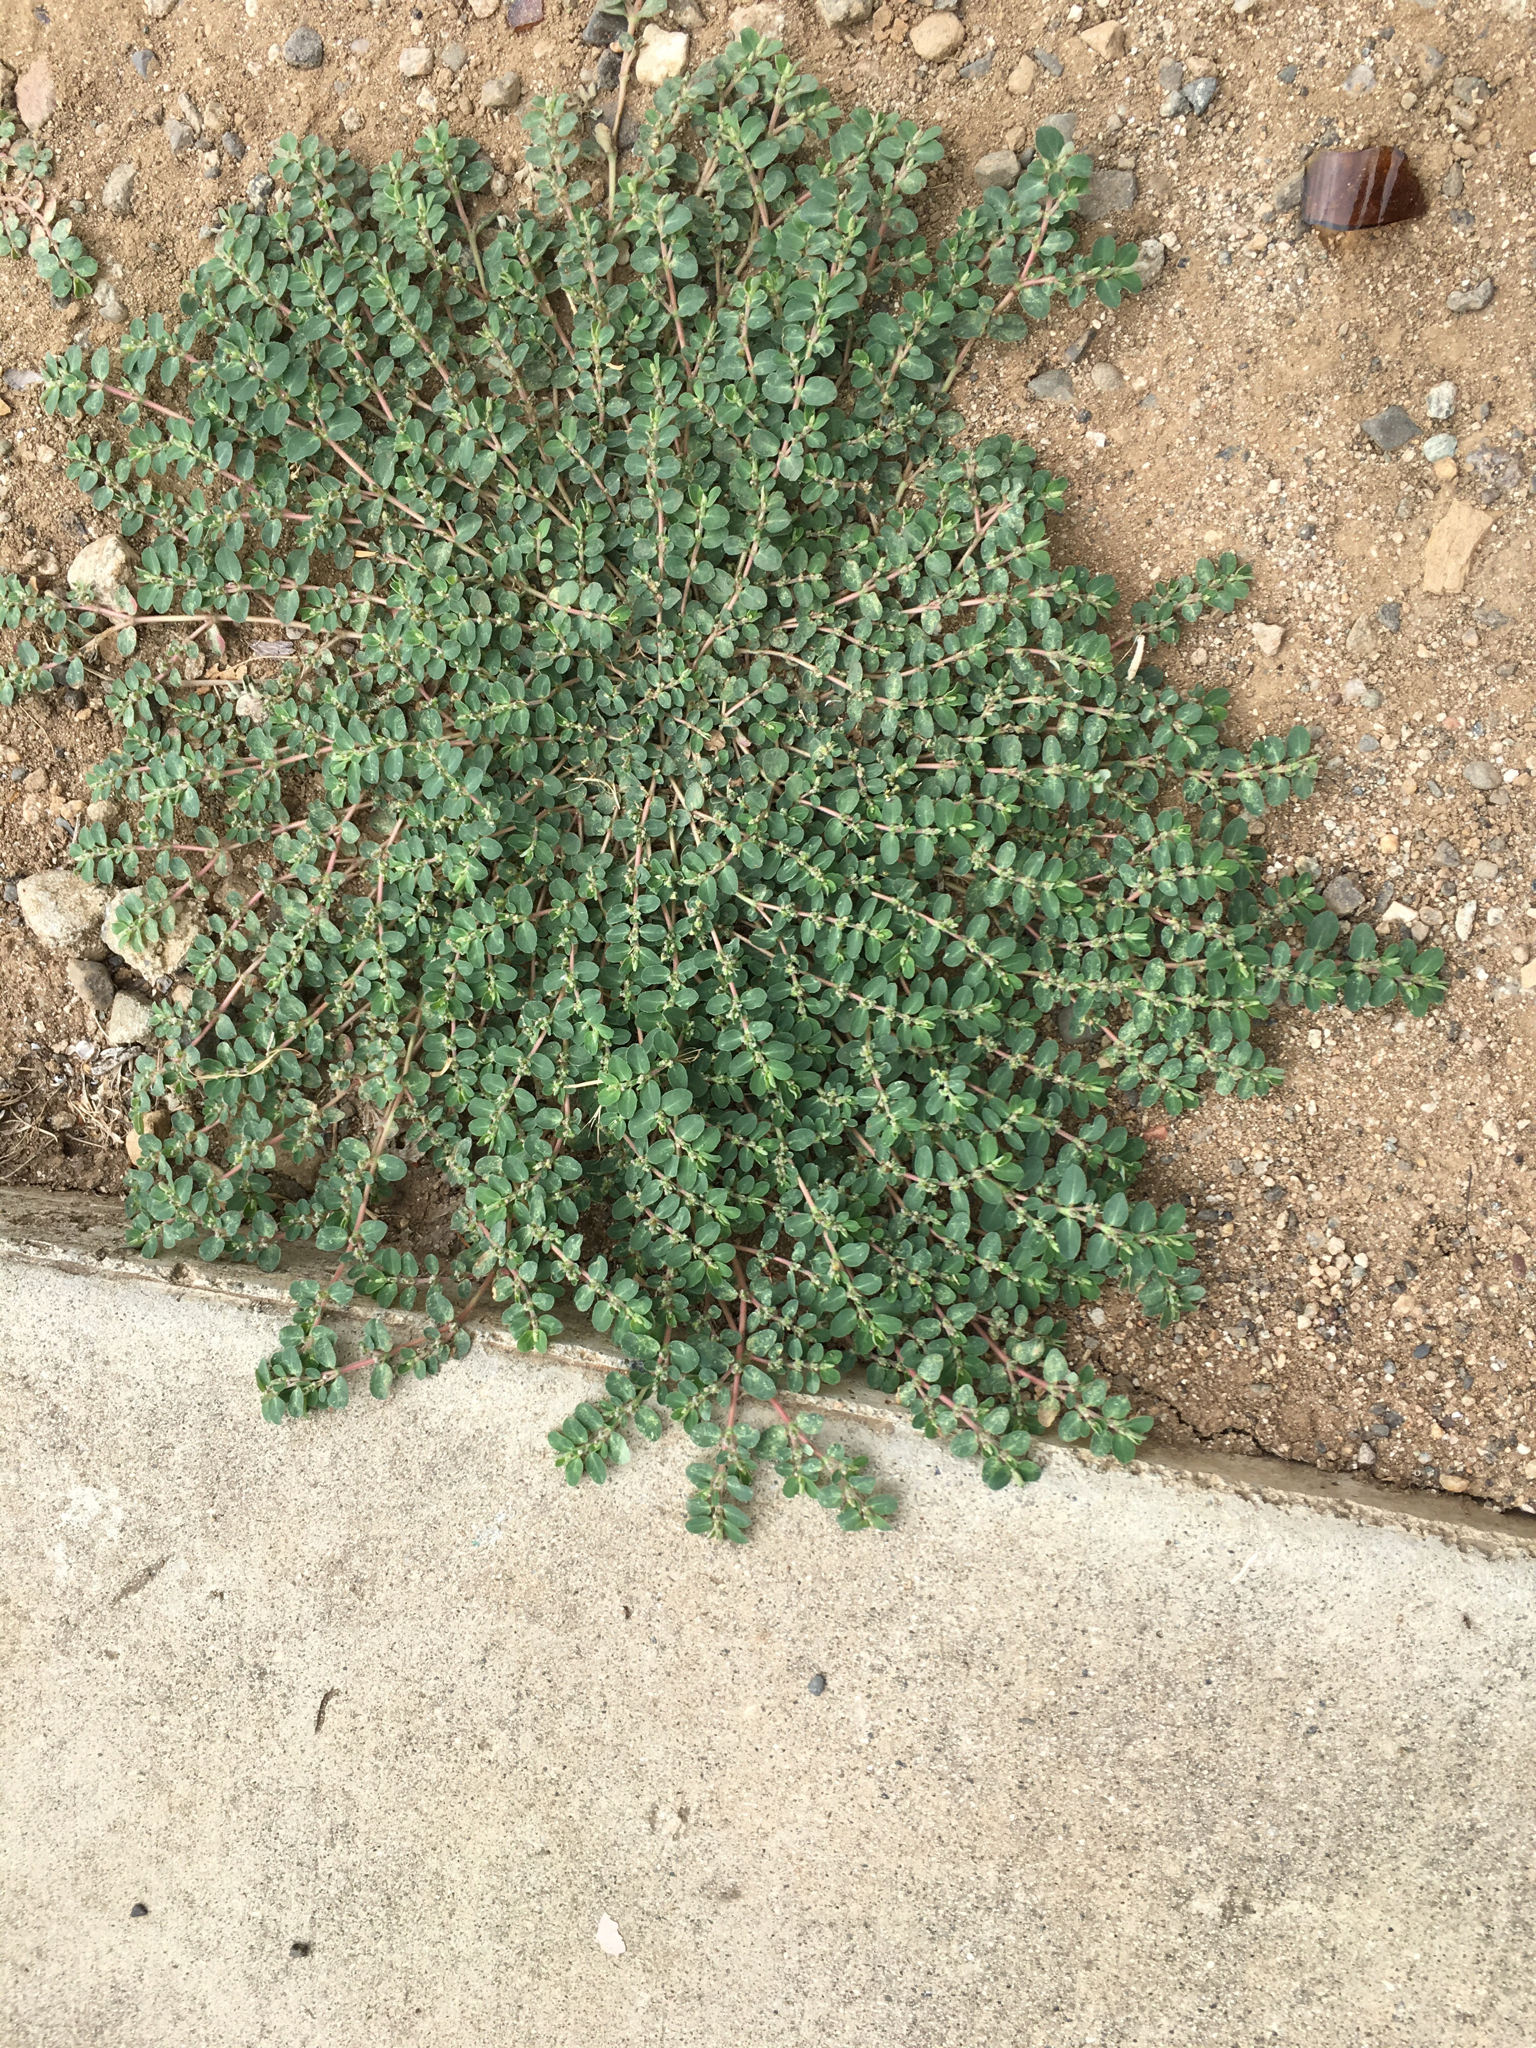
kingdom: Plantae
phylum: Tracheophyta
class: Magnoliopsida
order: Malpighiales
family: Euphorbiaceae
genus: Euphorbia
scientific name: Euphorbia prostrata
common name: Prostrate sandmat
